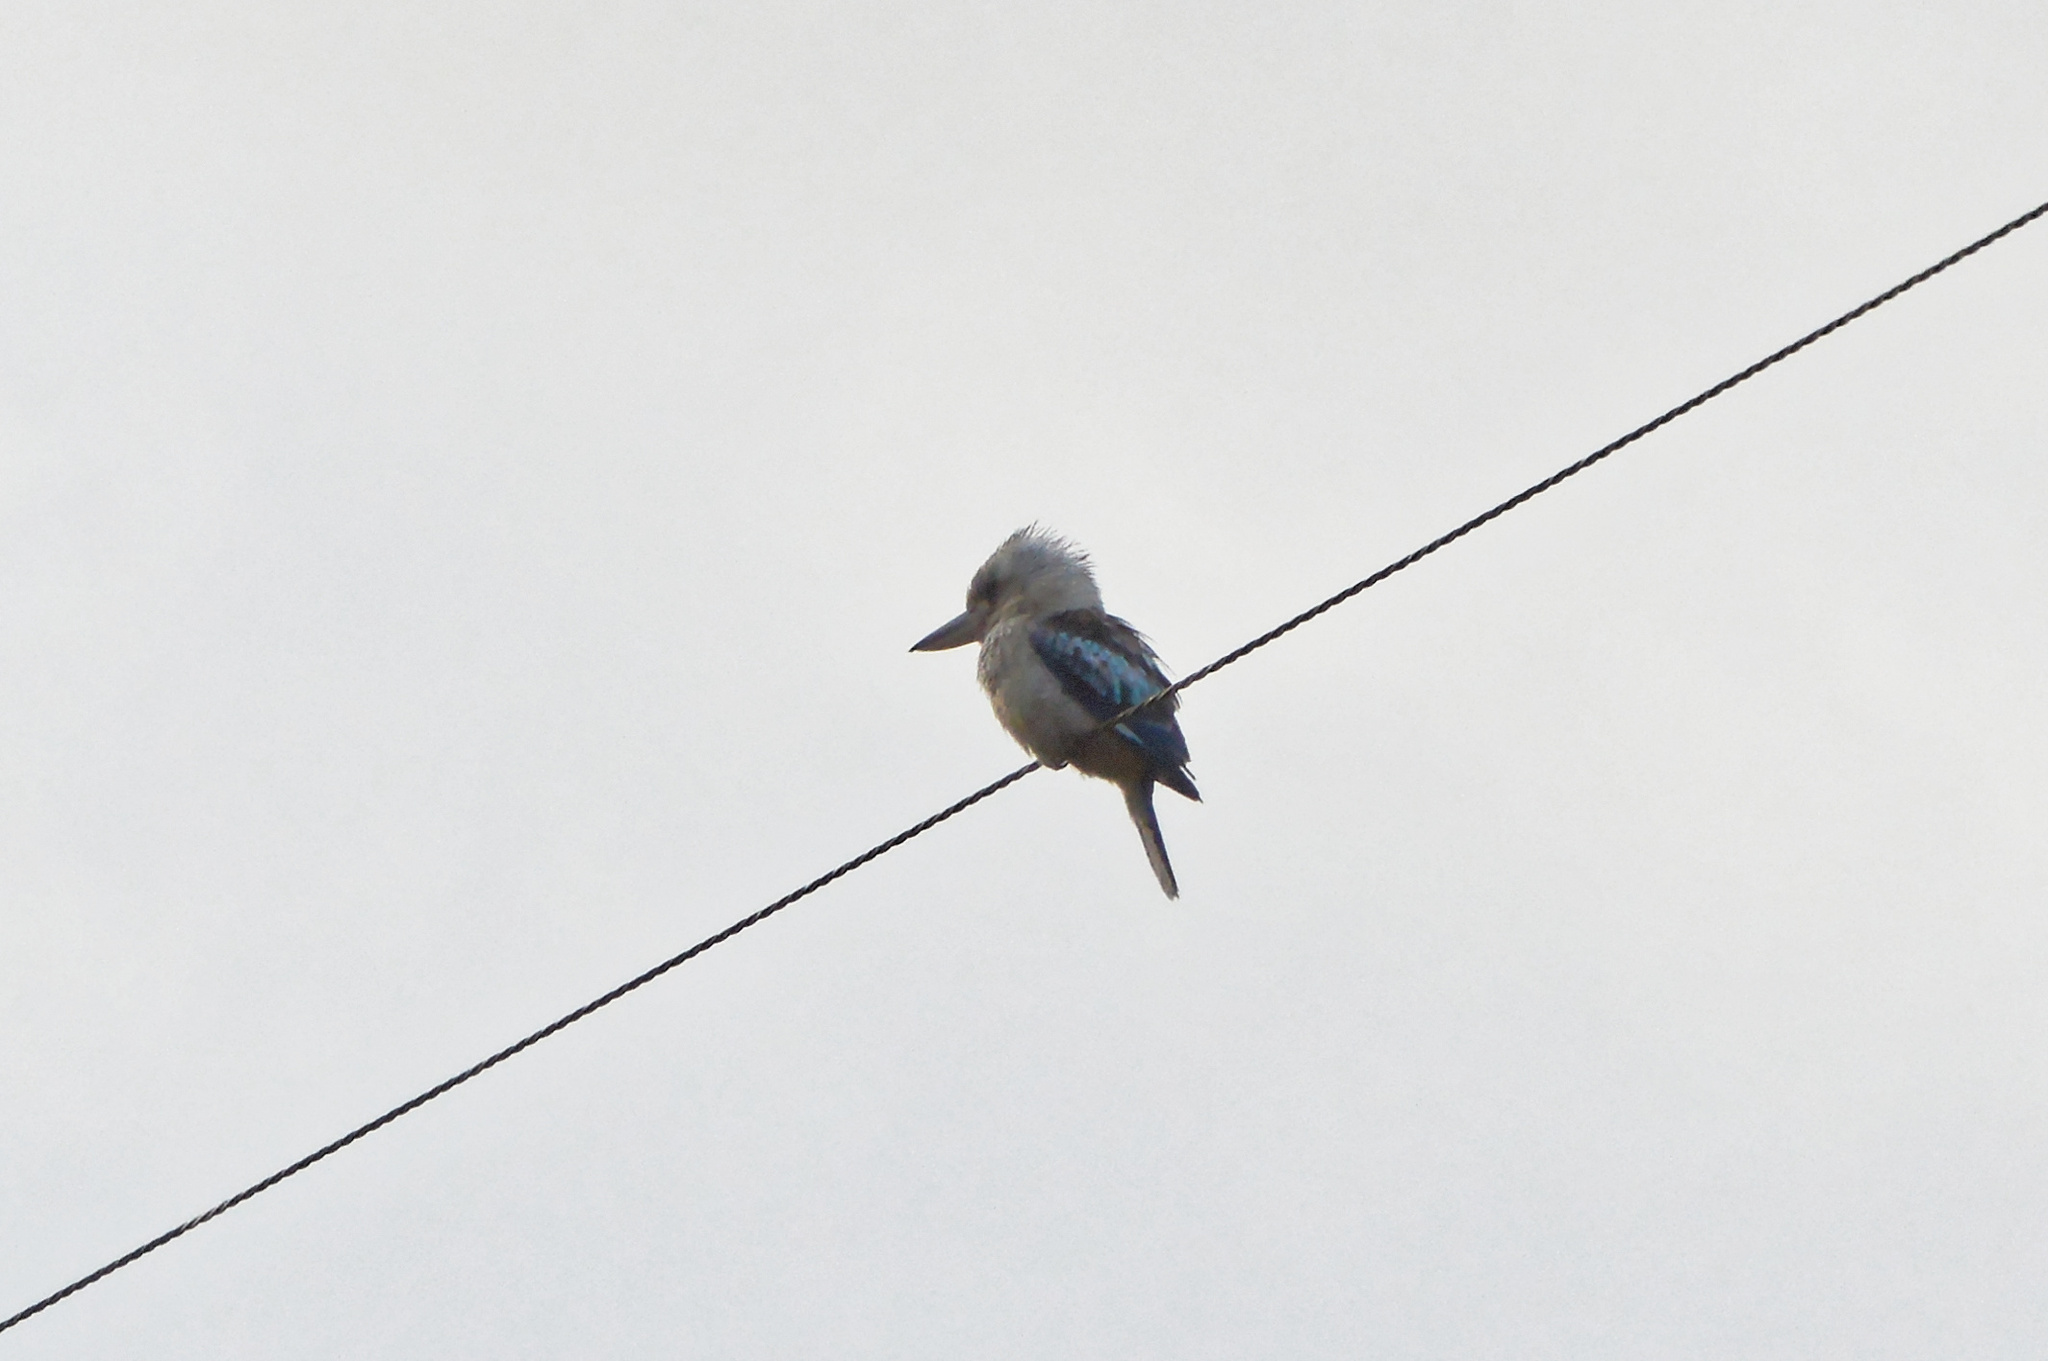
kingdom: Animalia
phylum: Chordata
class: Aves
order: Coraciiformes
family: Alcedinidae
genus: Dacelo
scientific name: Dacelo leachii
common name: Blue-winged kookaburra
